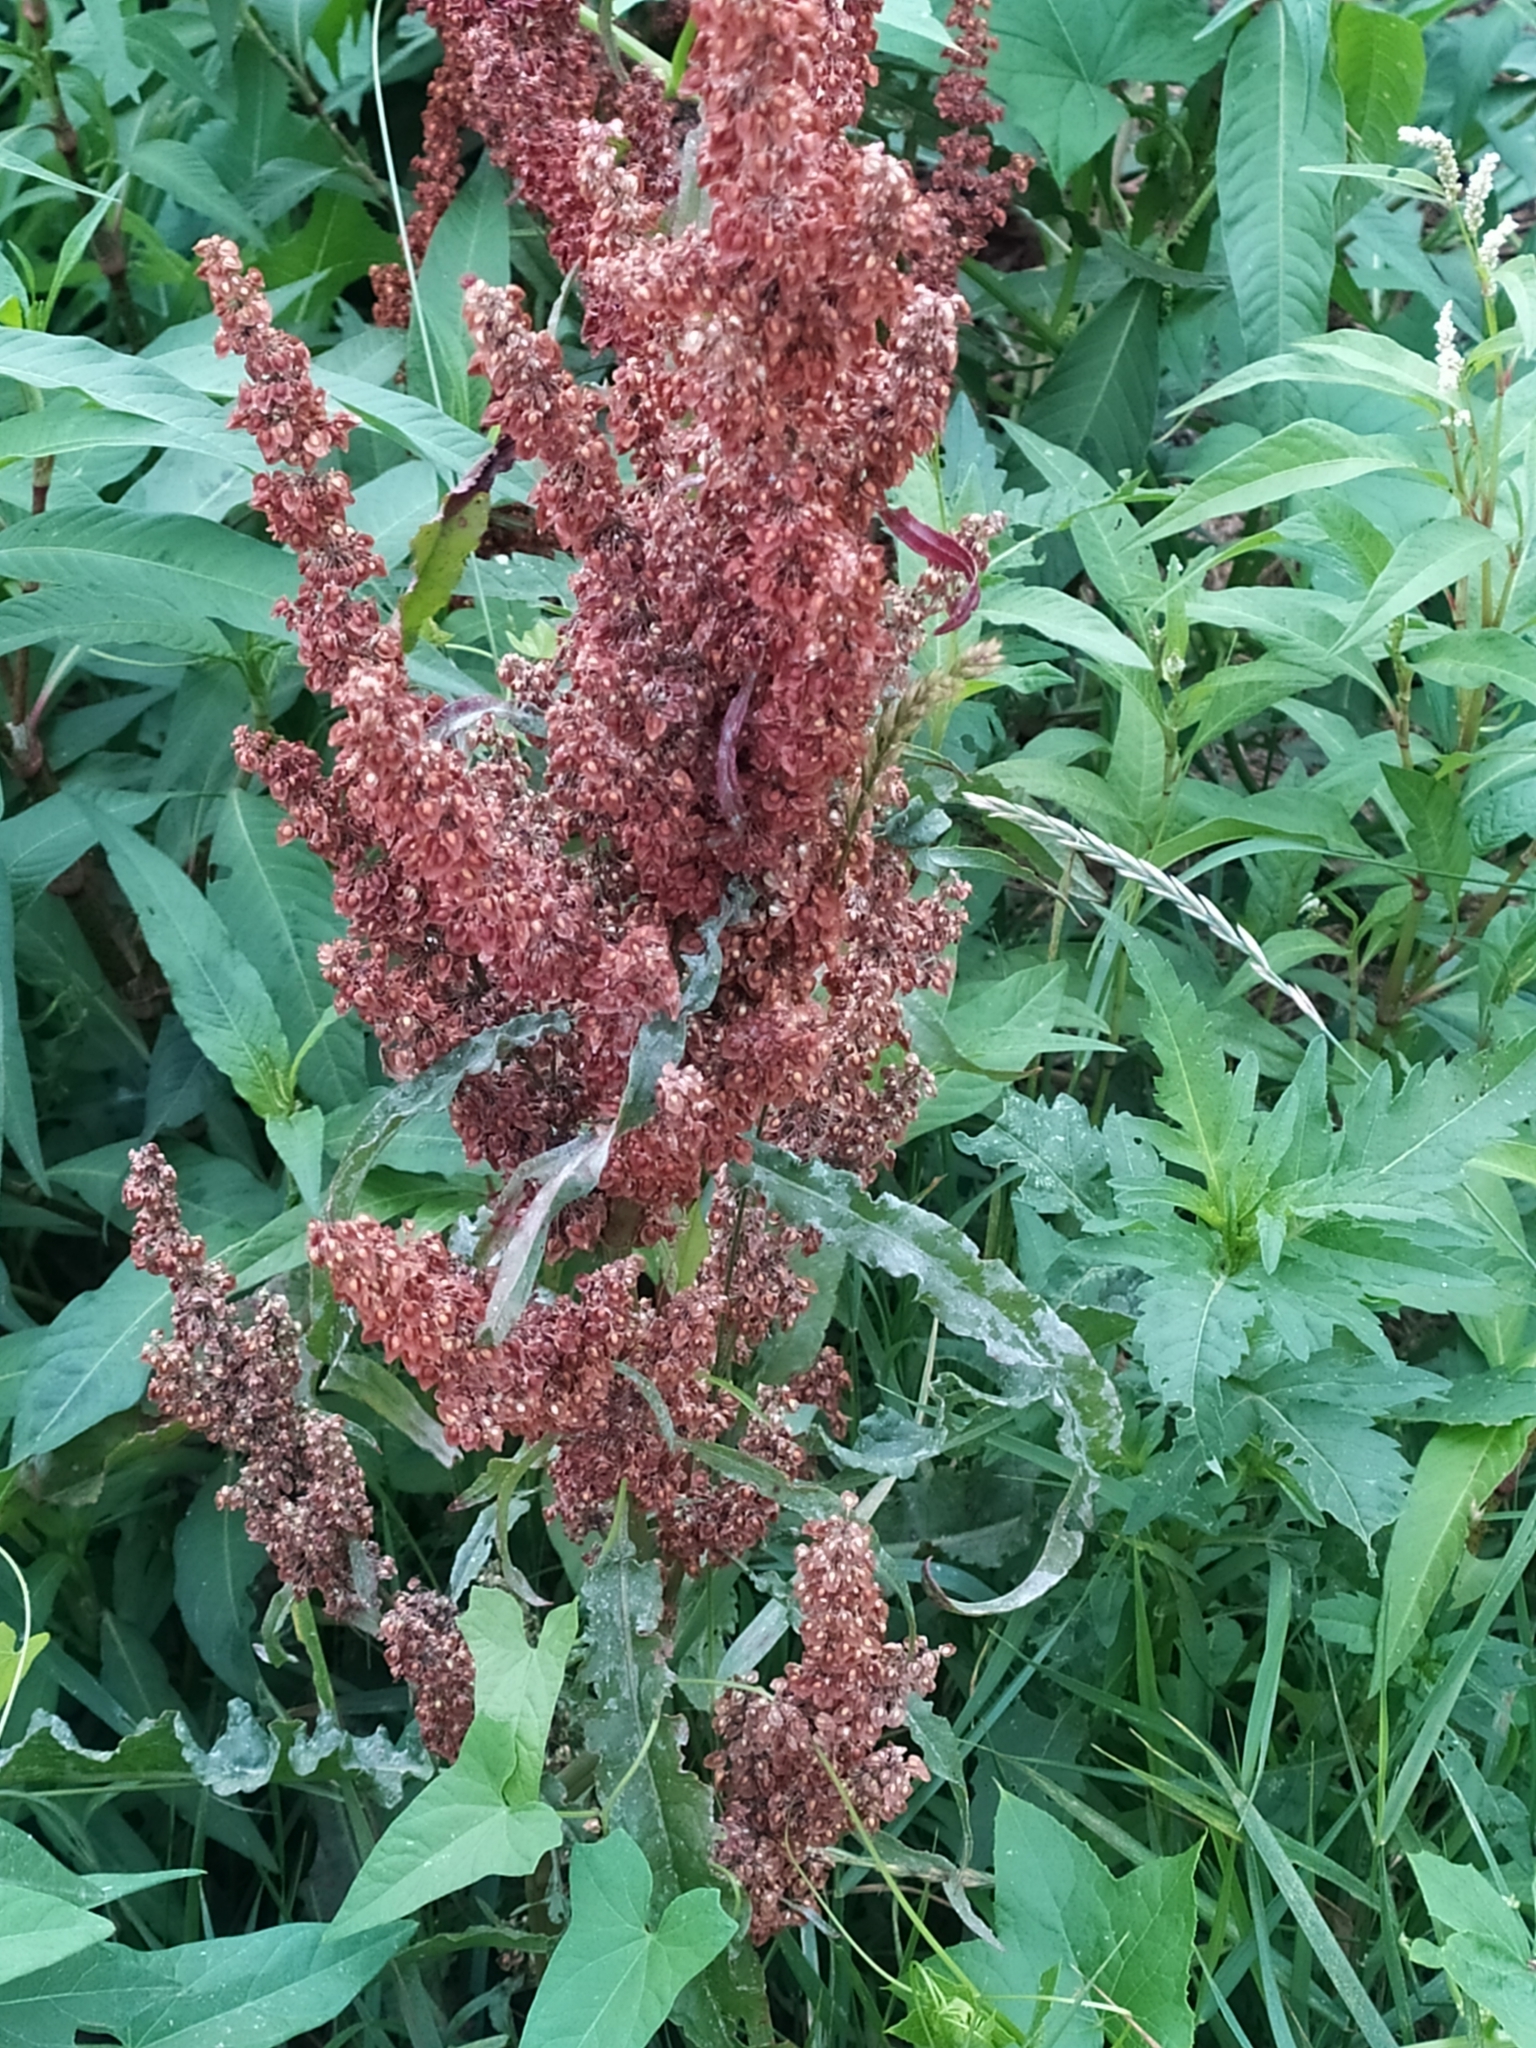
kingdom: Plantae
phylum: Tracheophyta
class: Magnoliopsida
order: Caryophyllales
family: Polygonaceae
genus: Rumex
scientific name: Rumex crispus
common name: Curled dock
